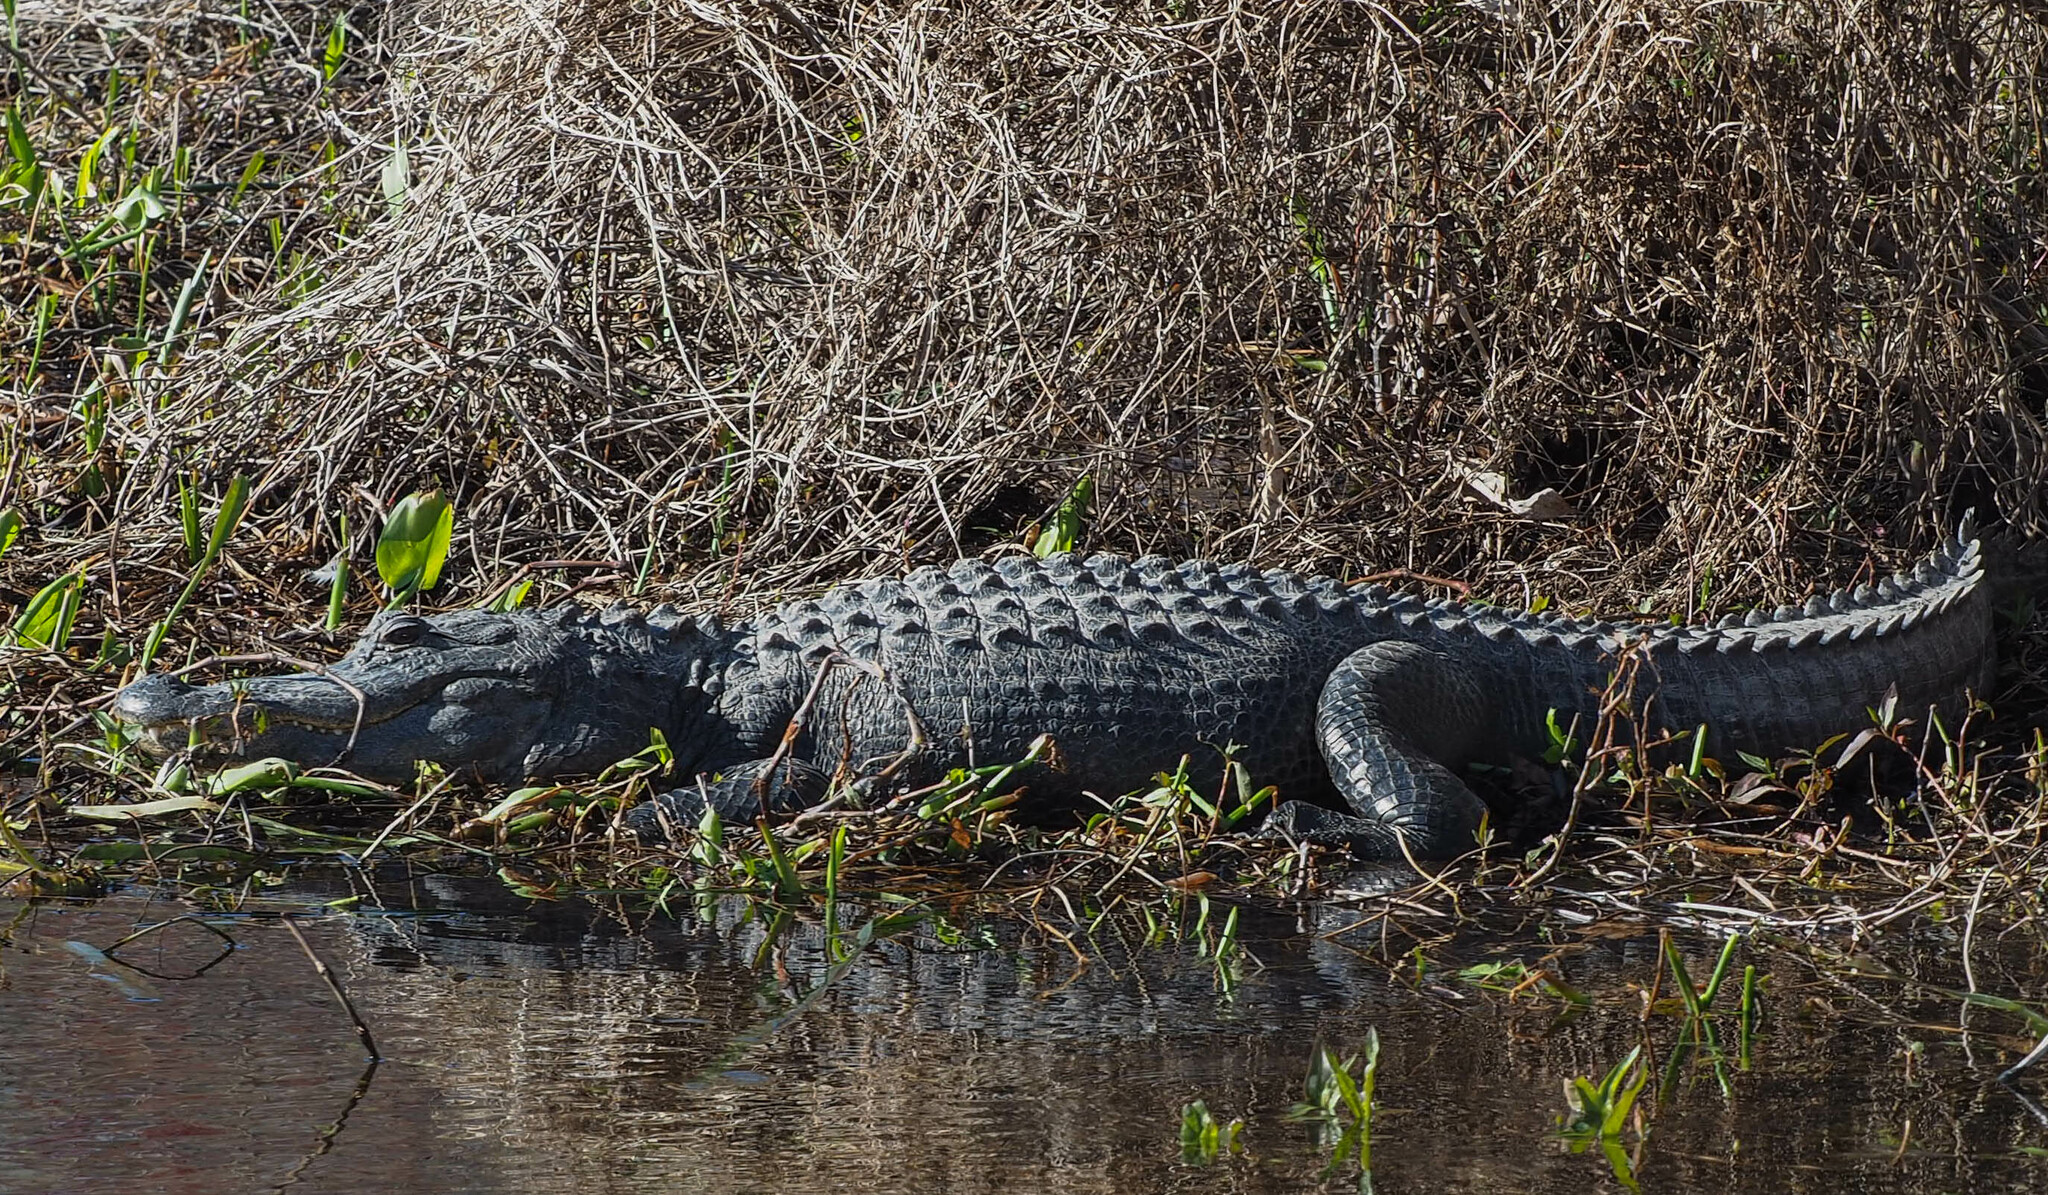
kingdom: Animalia
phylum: Chordata
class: Crocodylia
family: Alligatoridae
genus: Alligator
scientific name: Alligator mississippiensis
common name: American alligator
